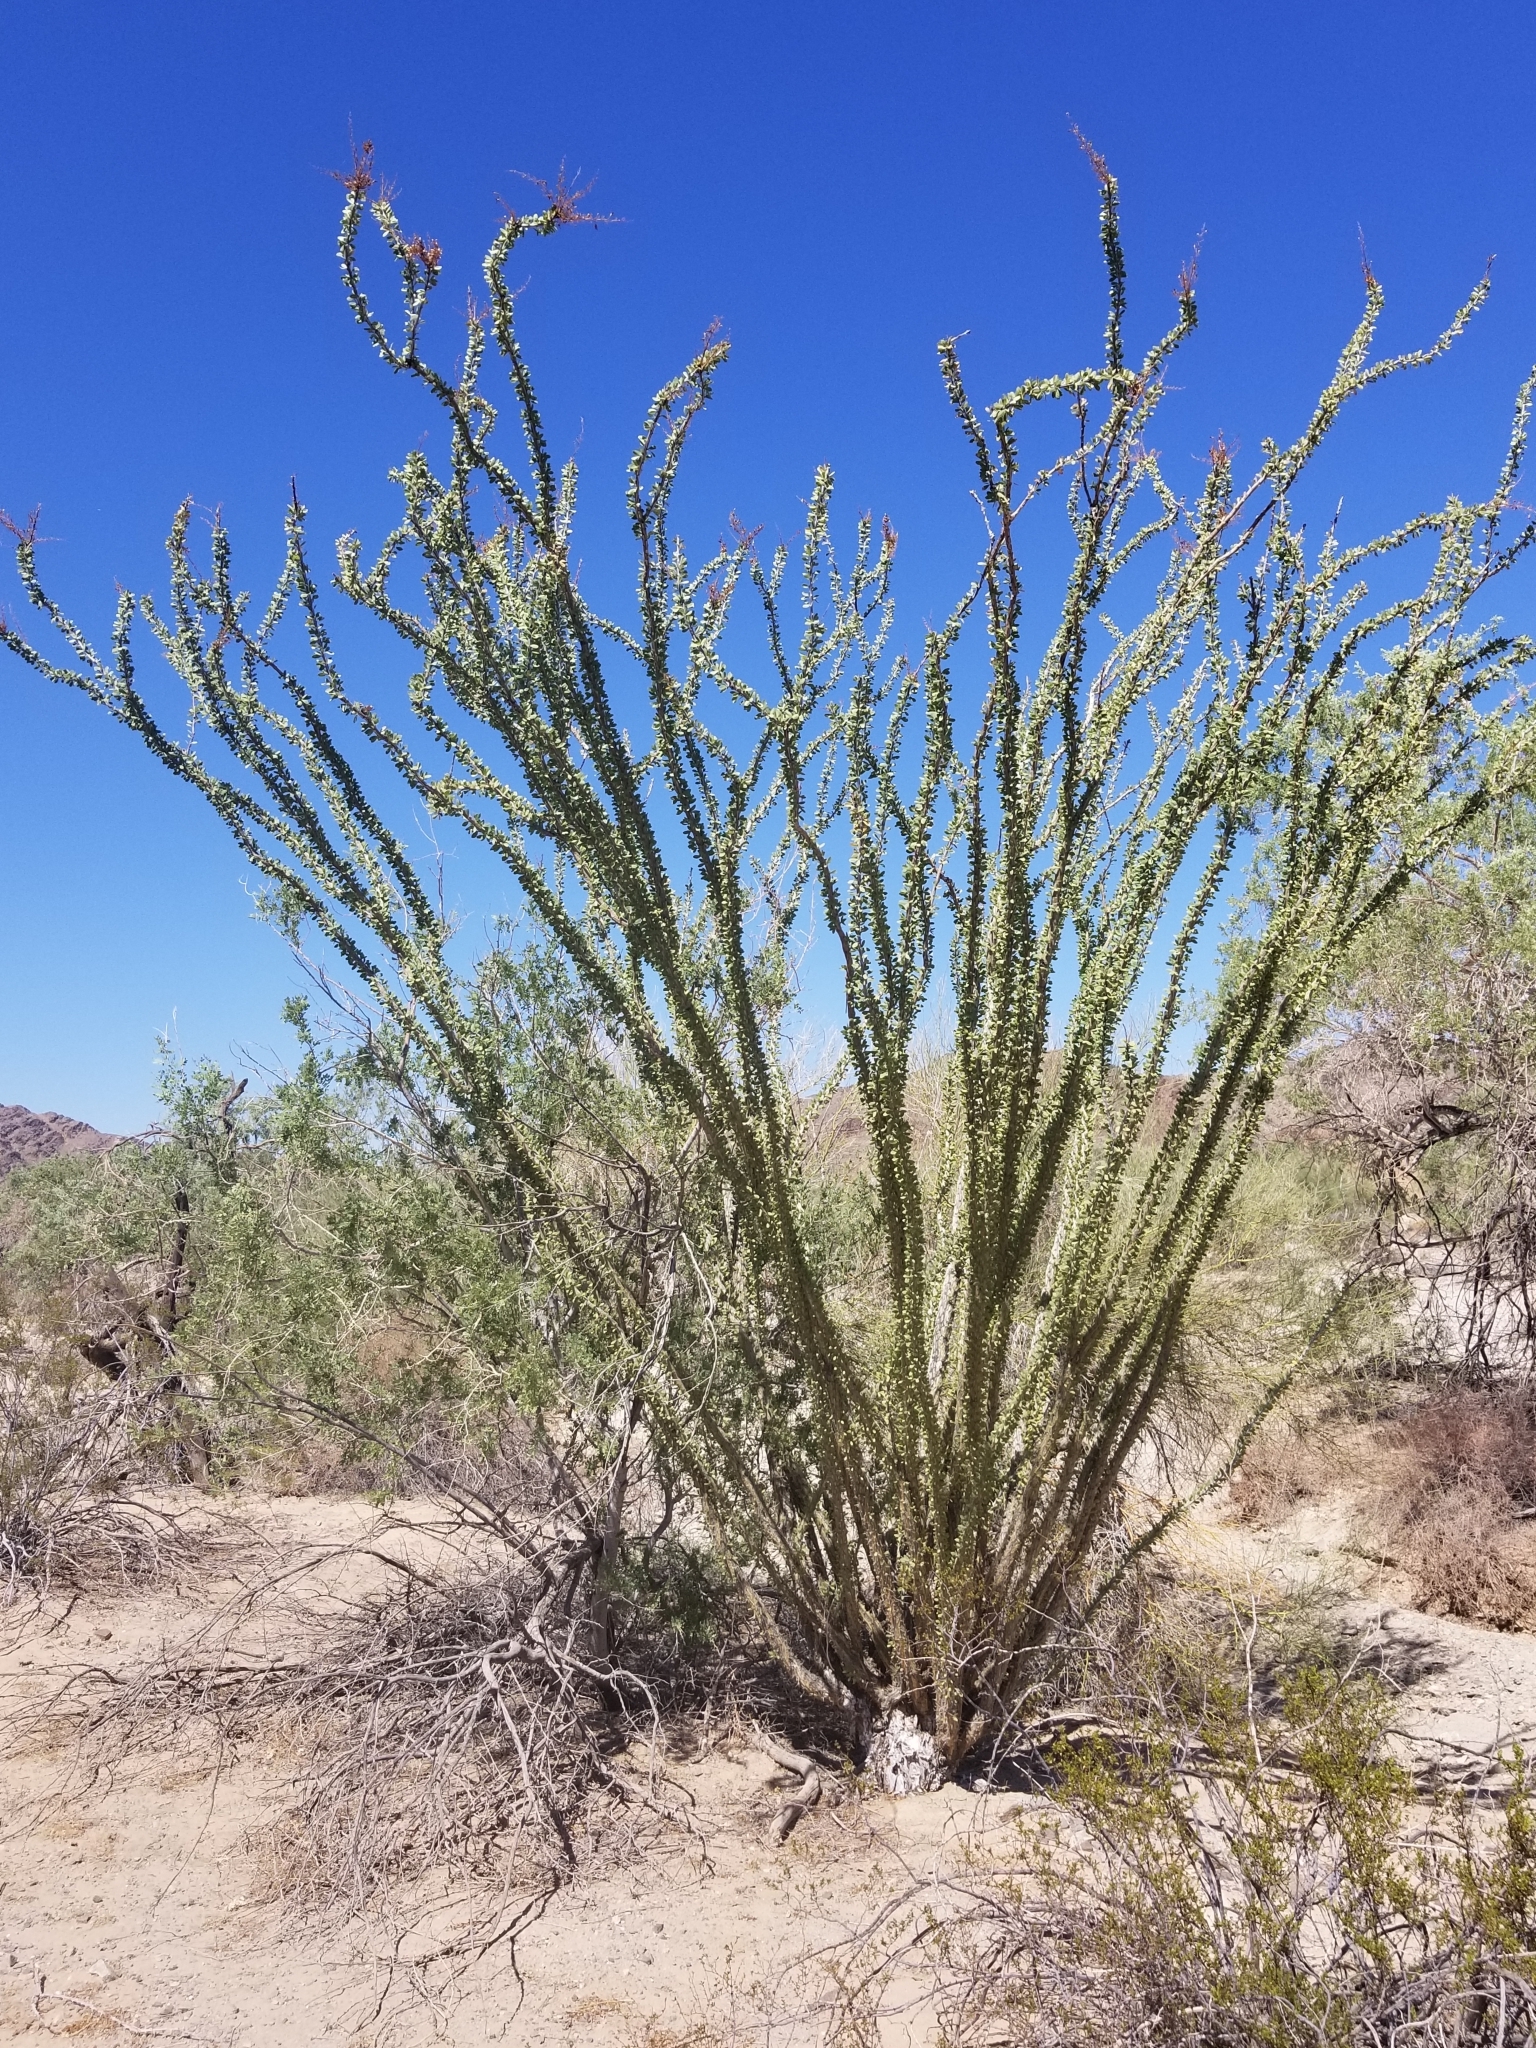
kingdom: Plantae
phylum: Tracheophyta
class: Magnoliopsida
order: Ericales
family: Fouquieriaceae
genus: Fouquieria
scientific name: Fouquieria splendens
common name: Vine-cactus
